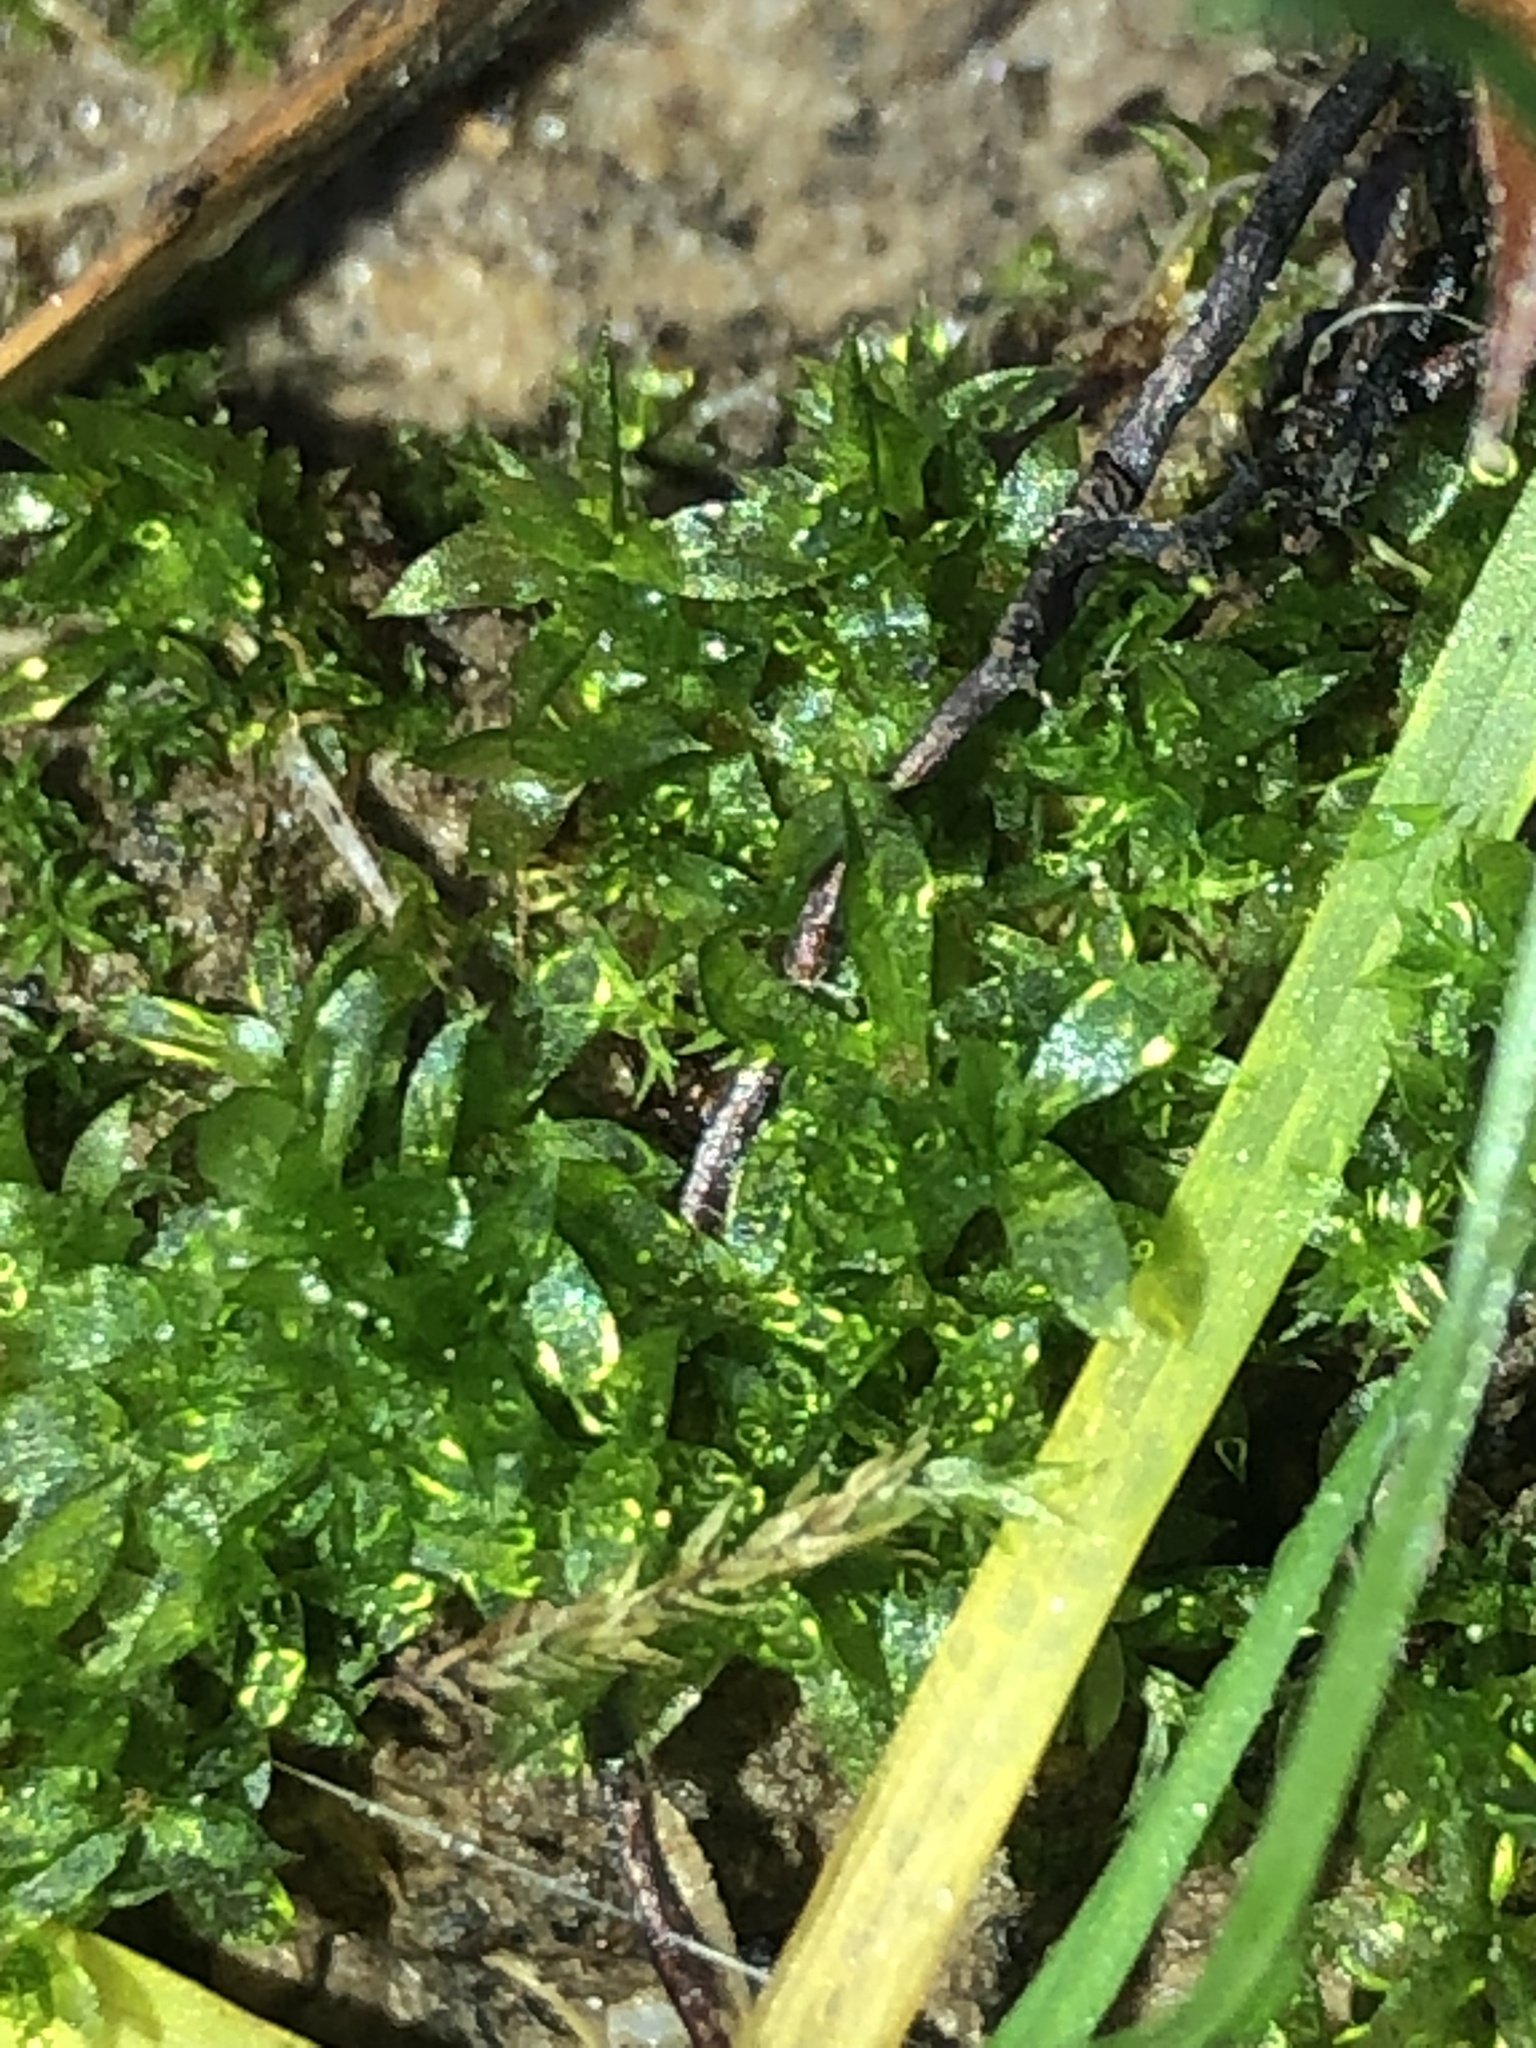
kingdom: Plantae
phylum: Bryophyta
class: Bryopsida
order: Funariales
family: Funariaceae
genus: Physcomitrium
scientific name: Physcomitrium pyriforme
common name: Common bladder-moss
